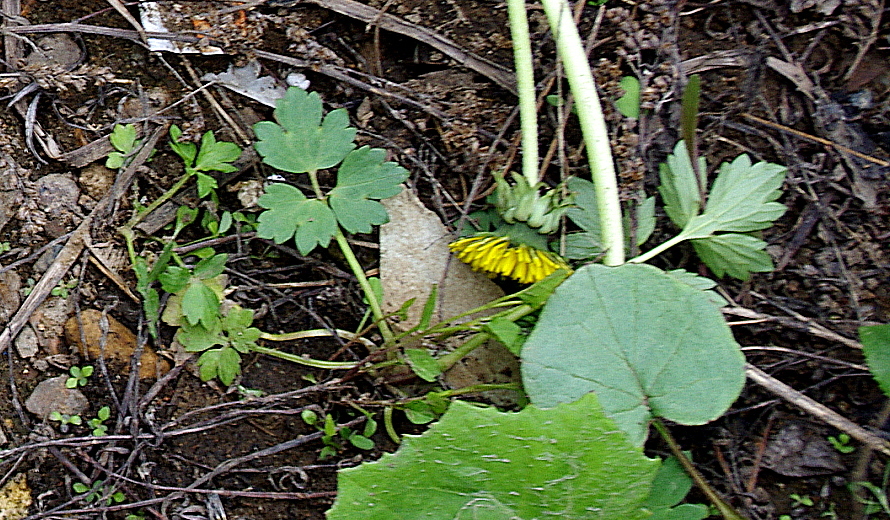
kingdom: Plantae
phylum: Tracheophyta
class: Magnoliopsida
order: Ranunculales
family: Ranunculaceae
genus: Ranunculus
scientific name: Ranunculus repens
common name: Creeping buttercup
